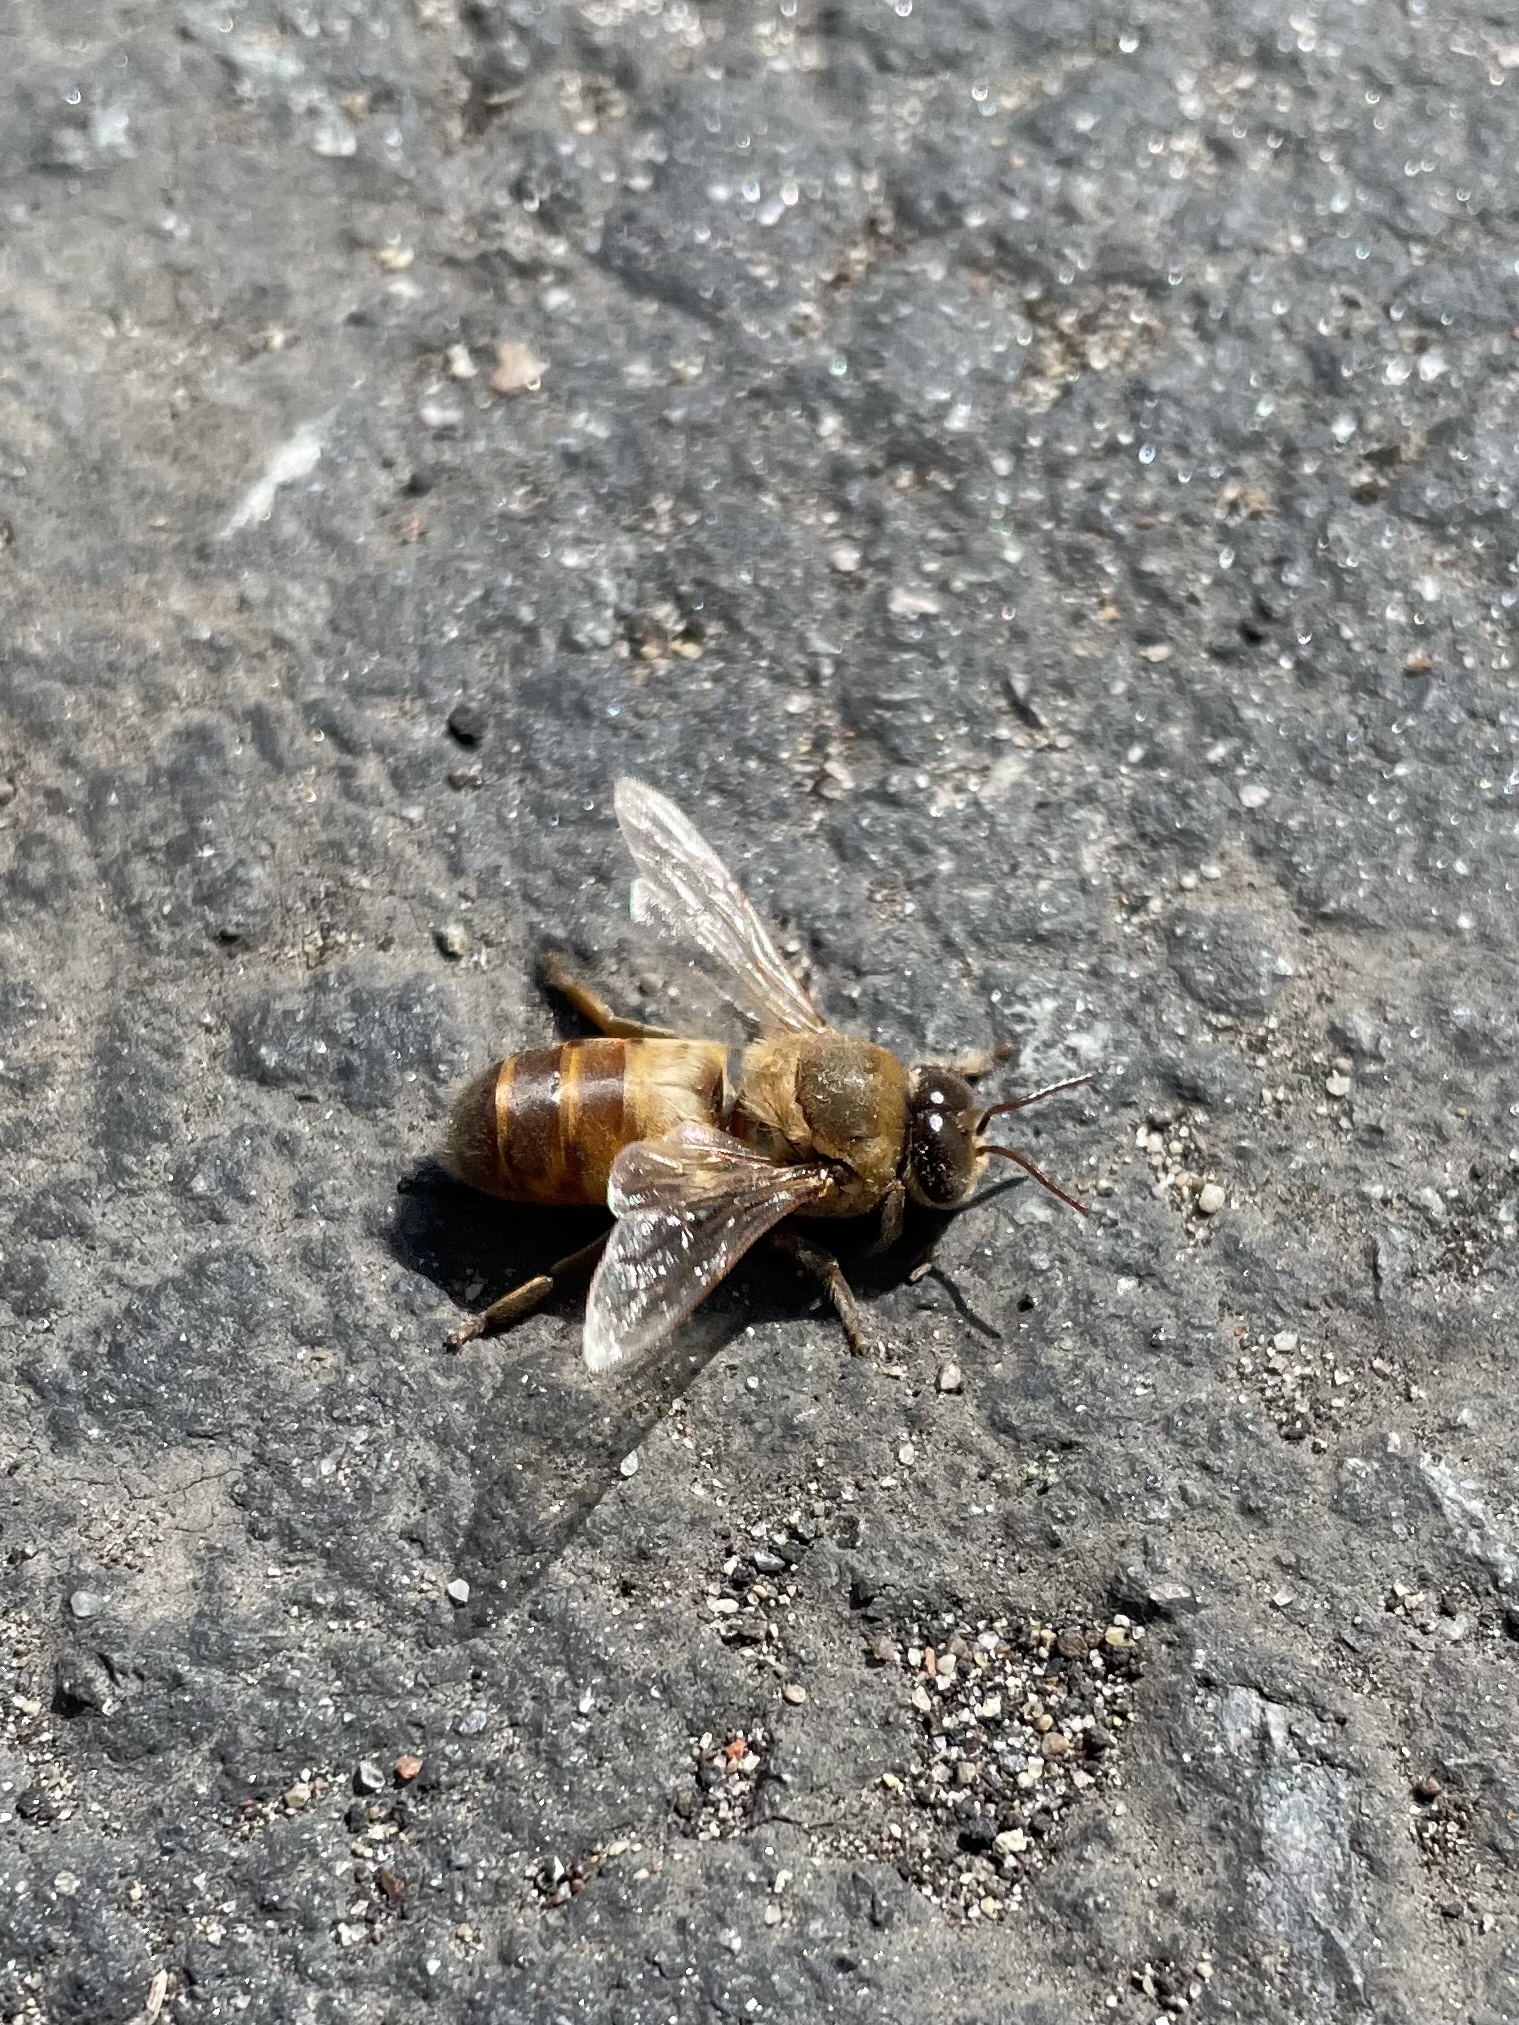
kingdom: Animalia
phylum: Arthropoda
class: Insecta
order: Hymenoptera
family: Apidae
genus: Apis
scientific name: Apis mellifera
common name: Honey bee
